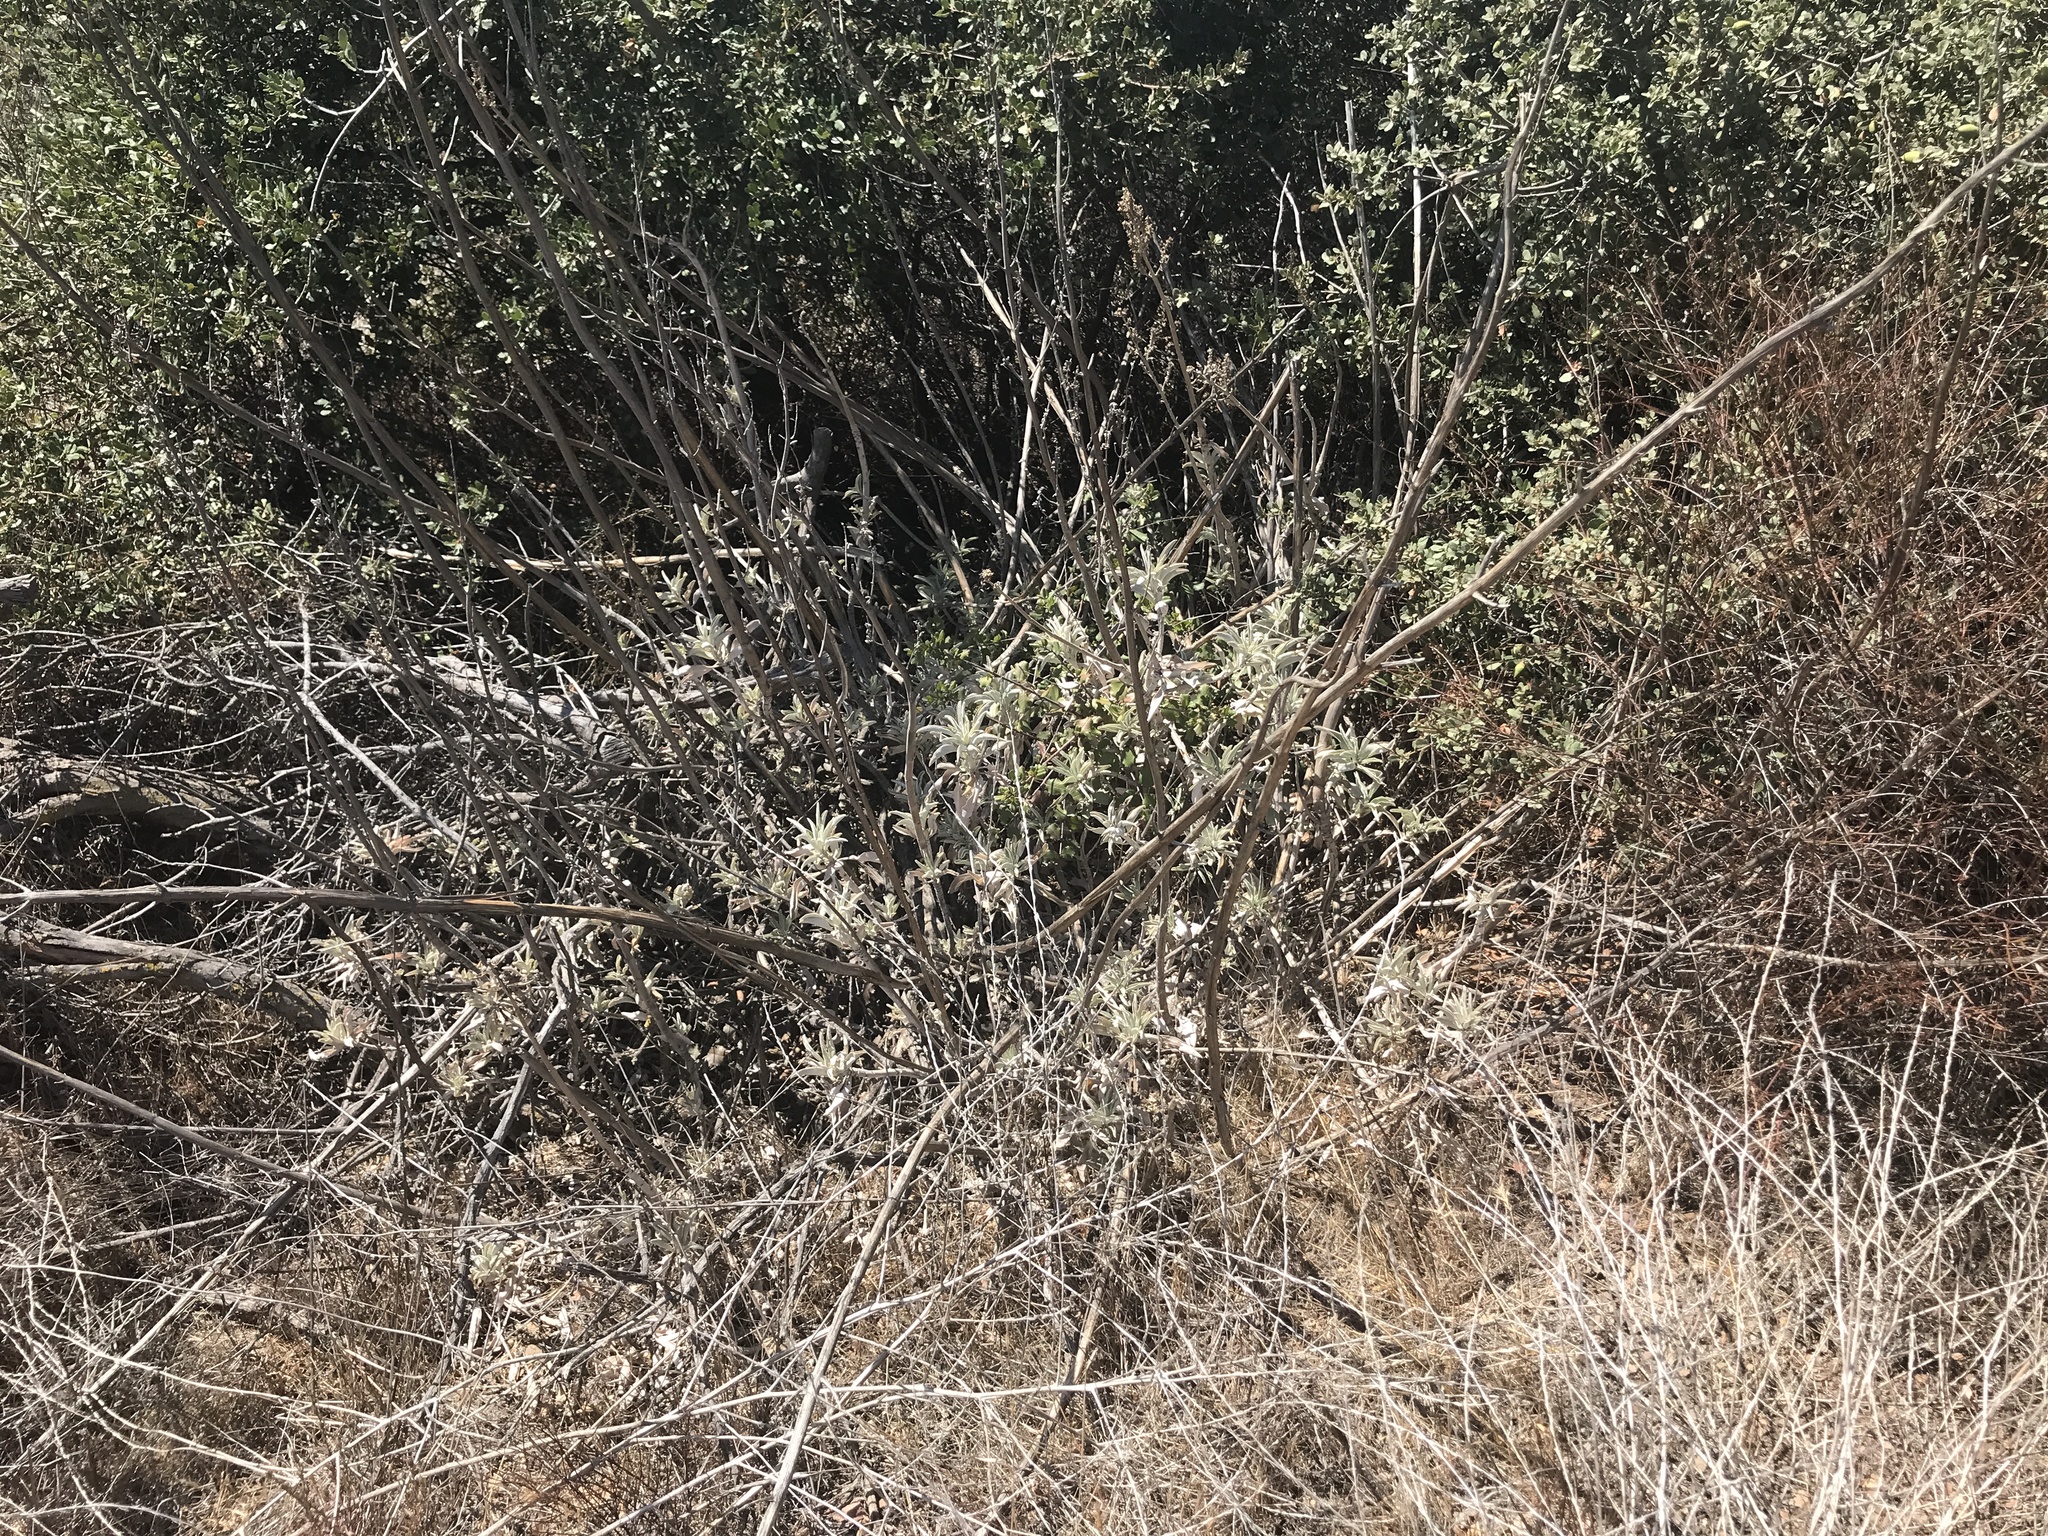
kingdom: Plantae
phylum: Tracheophyta
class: Magnoliopsida
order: Lamiales
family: Lamiaceae
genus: Salvia
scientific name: Salvia apiana
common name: White sage
